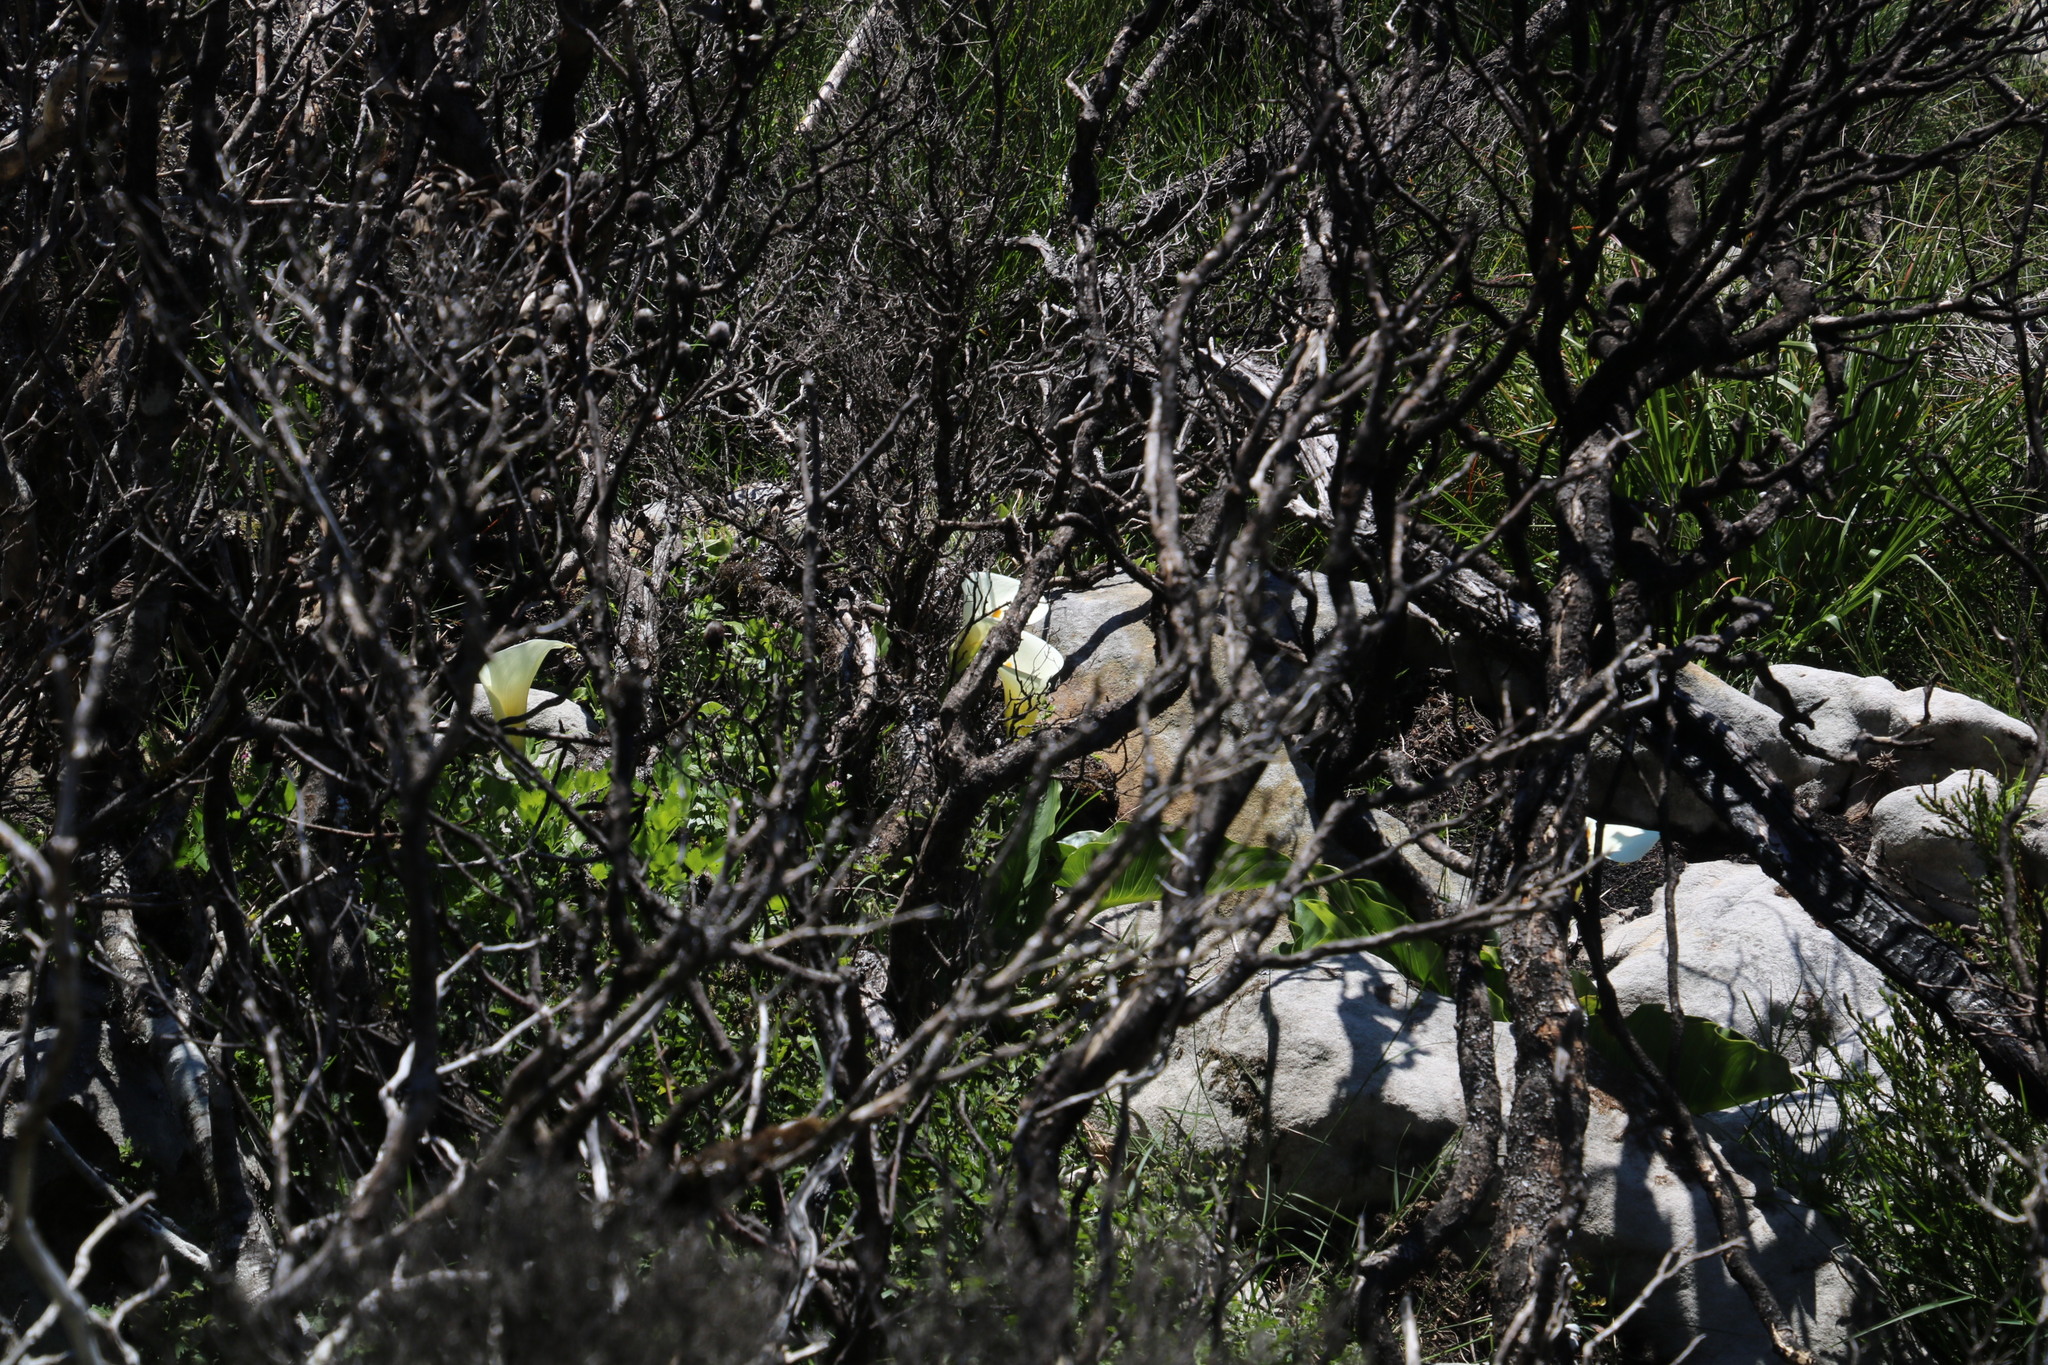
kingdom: Plantae
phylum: Tracheophyta
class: Liliopsida
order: Alismatales
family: Araceae
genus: Zantedeschia
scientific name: Zantedeschia aethiopica
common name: Altar-lily
